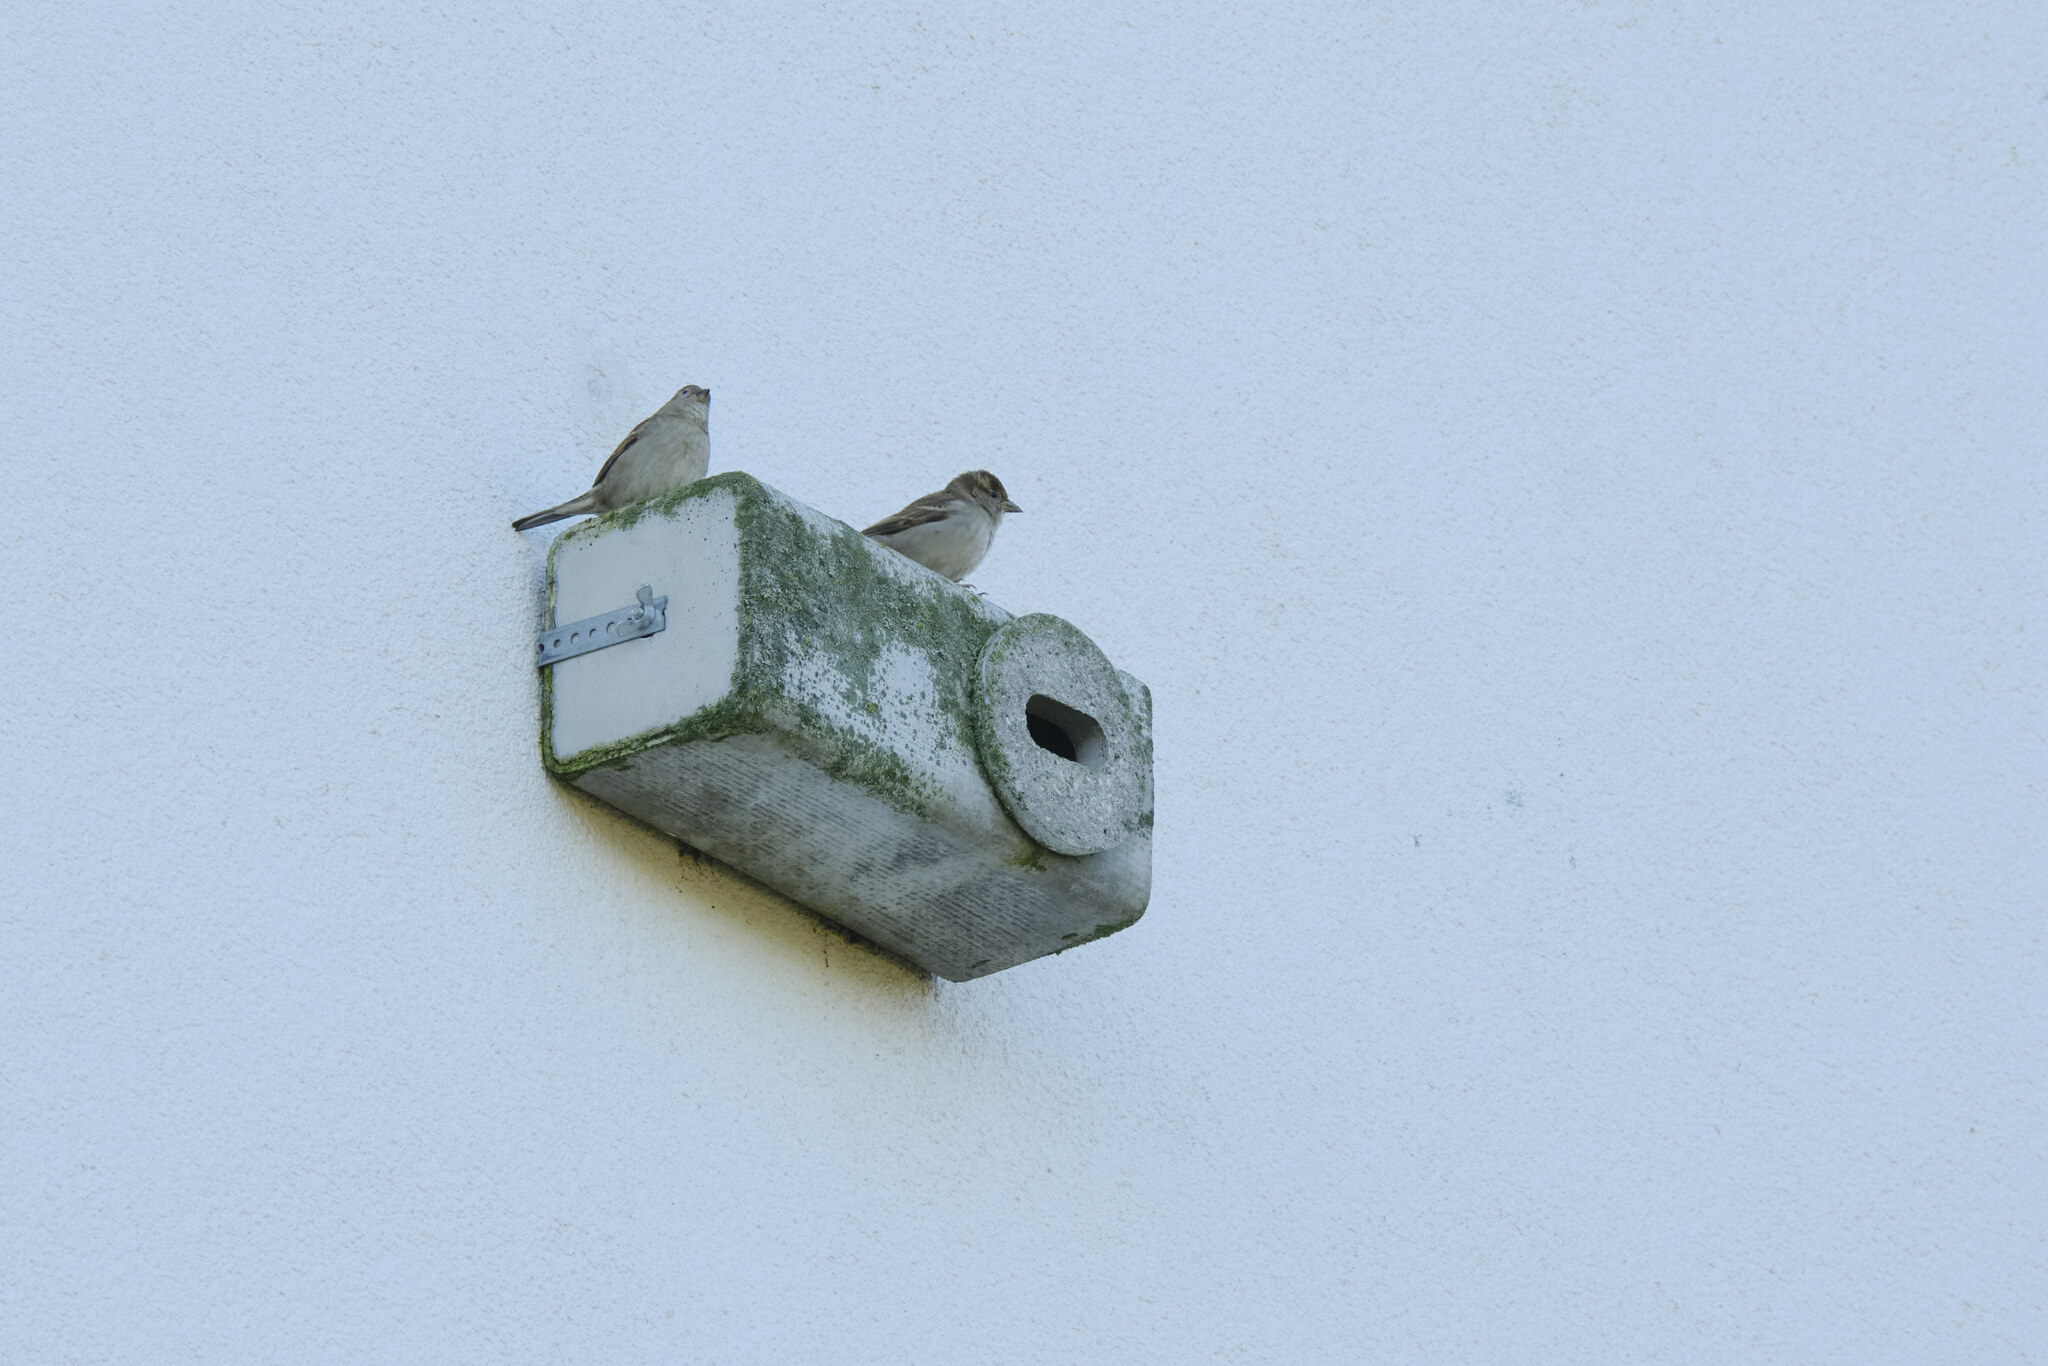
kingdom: Animalia
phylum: Chordata
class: Aves
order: Passeriformes
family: Passeridae
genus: Passer
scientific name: Passer domesticus
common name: House sparrow
